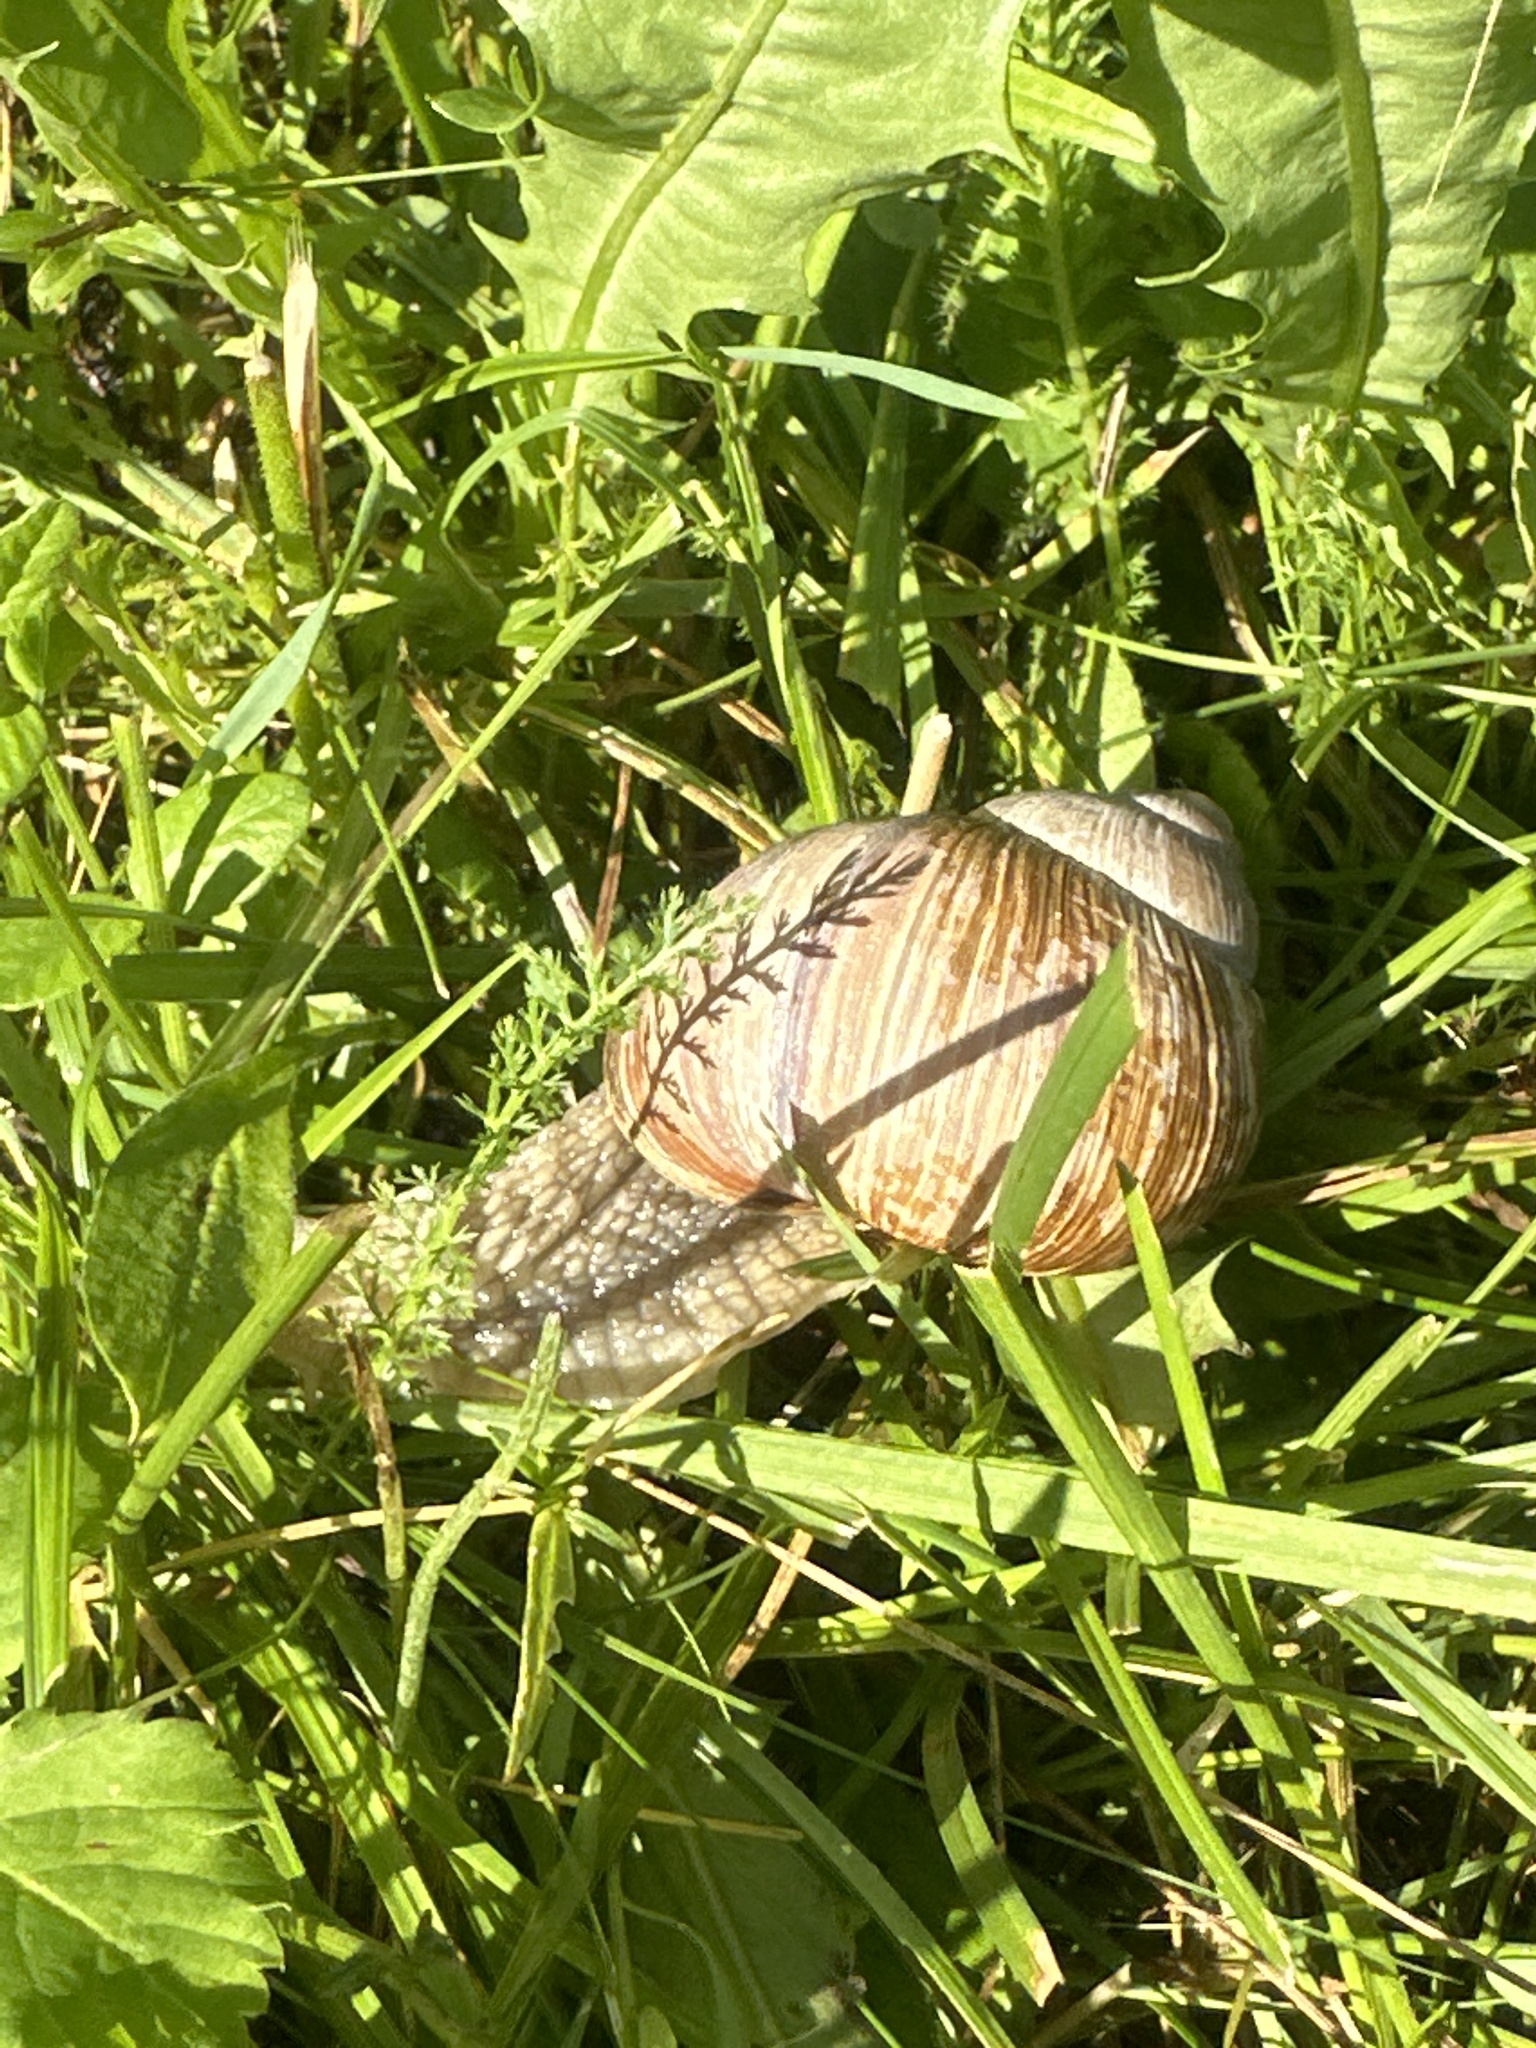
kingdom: Animalia
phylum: Mollusca
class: Gastropoda
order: Stylommatophora
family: Helicidae
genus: Helix
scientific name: Helix pomatia
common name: Roman snail
